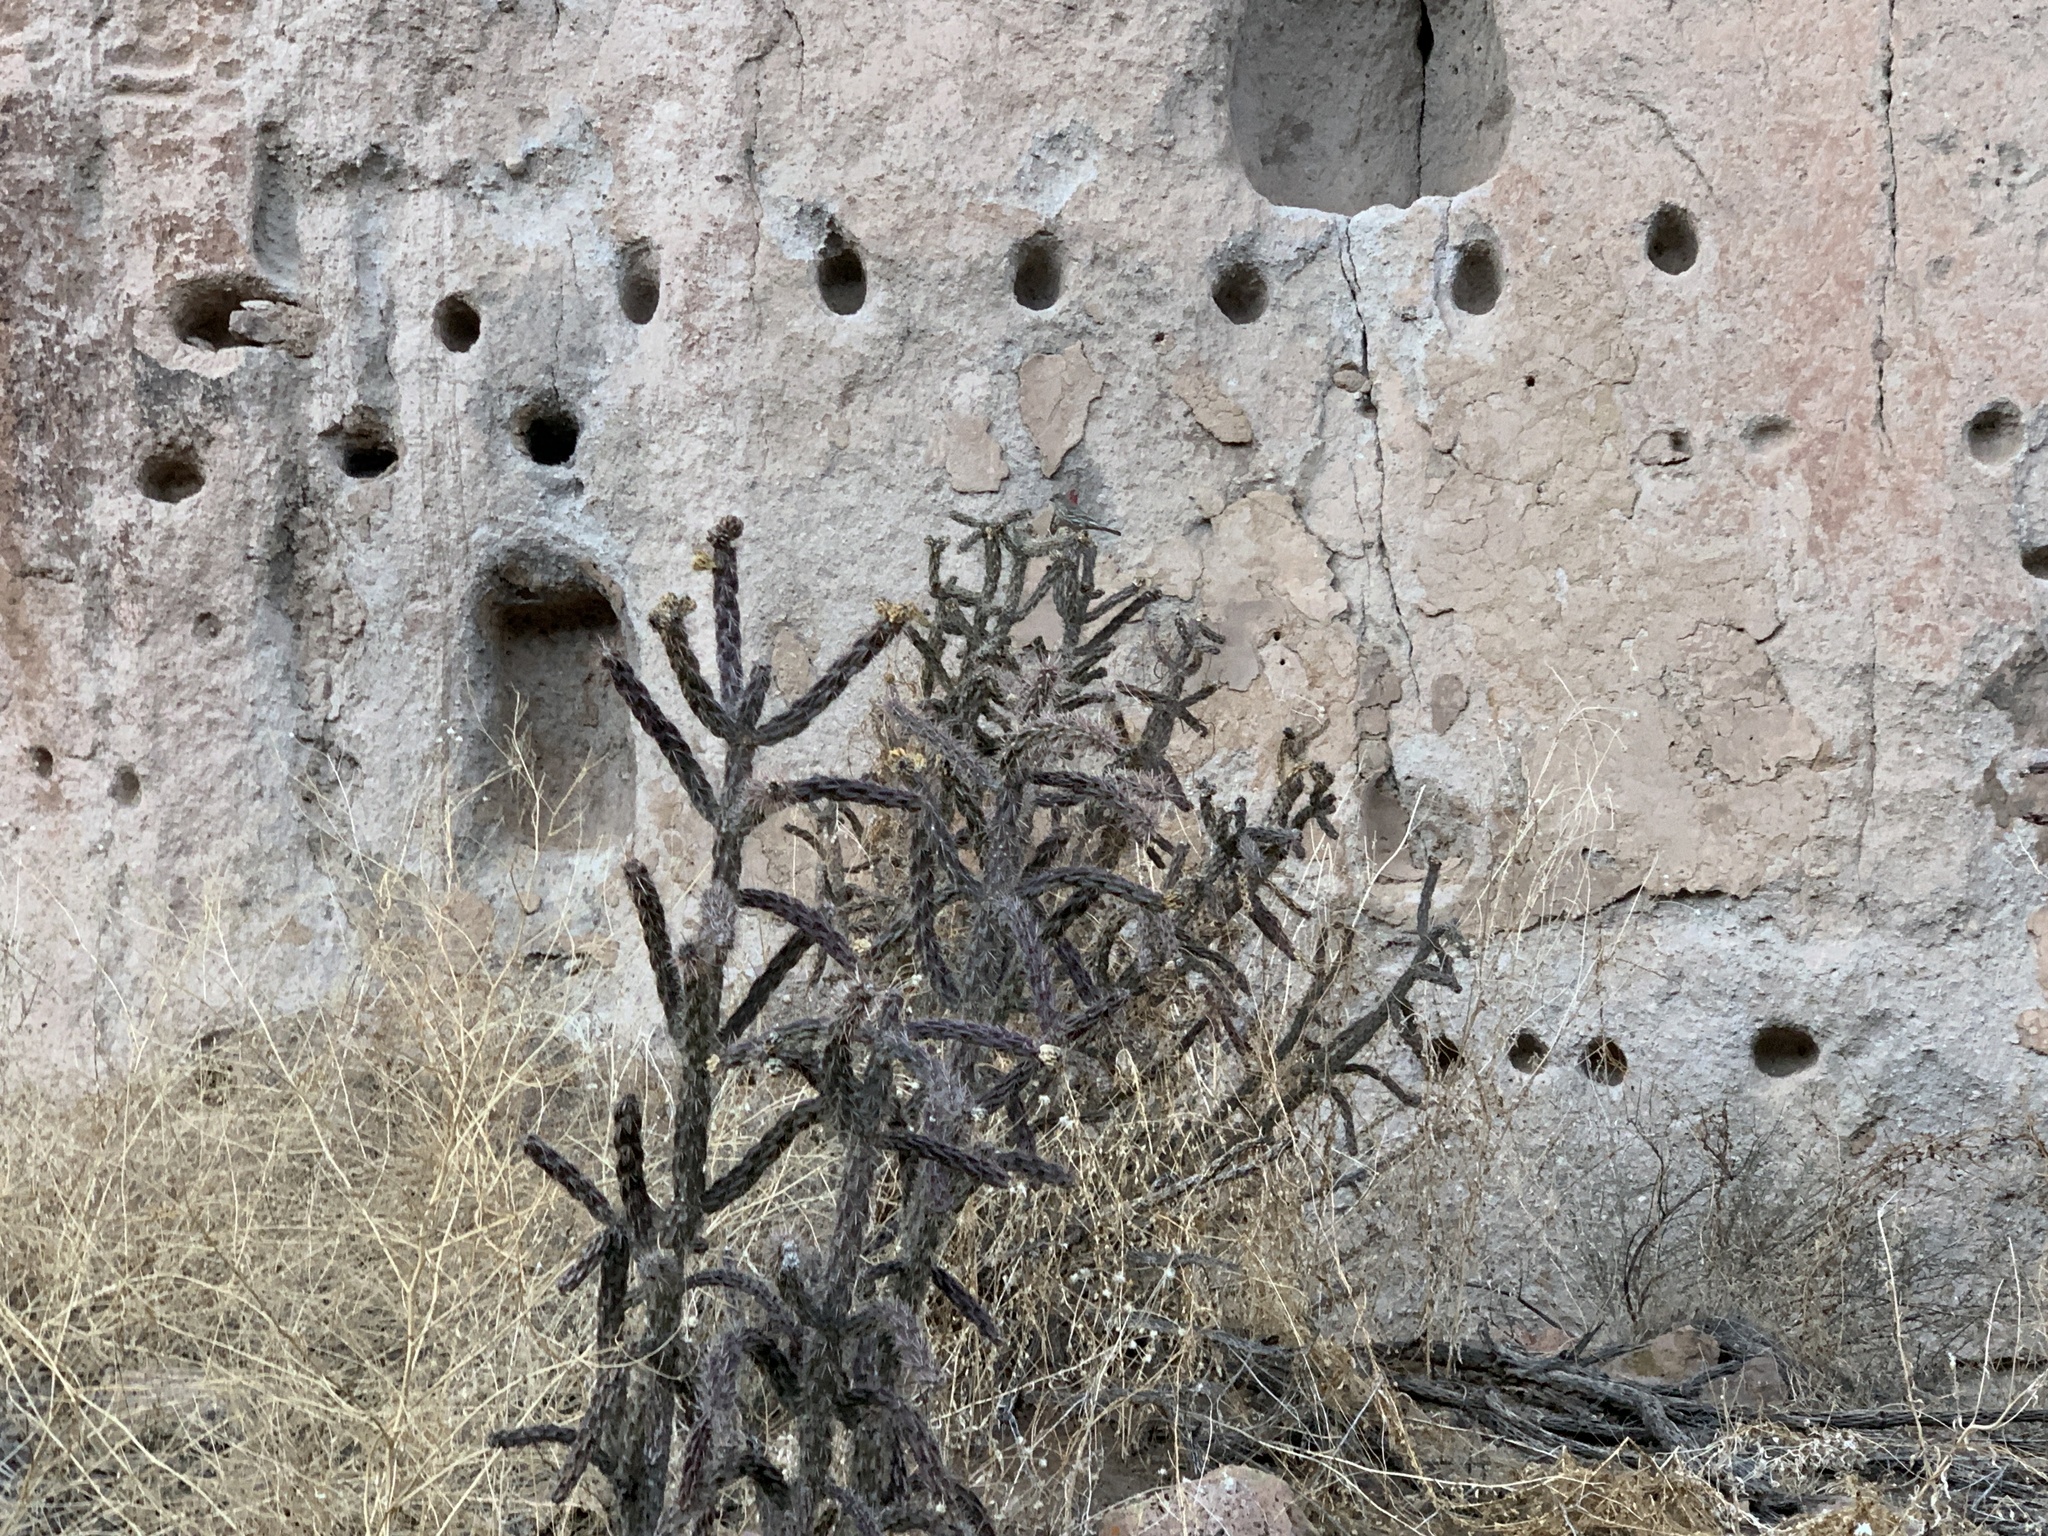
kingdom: Animalia
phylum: Chordata
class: Aves
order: Passeriformes
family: Fringillidae
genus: Haemorhous
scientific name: Haemorhous mexicanus
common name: House finch
